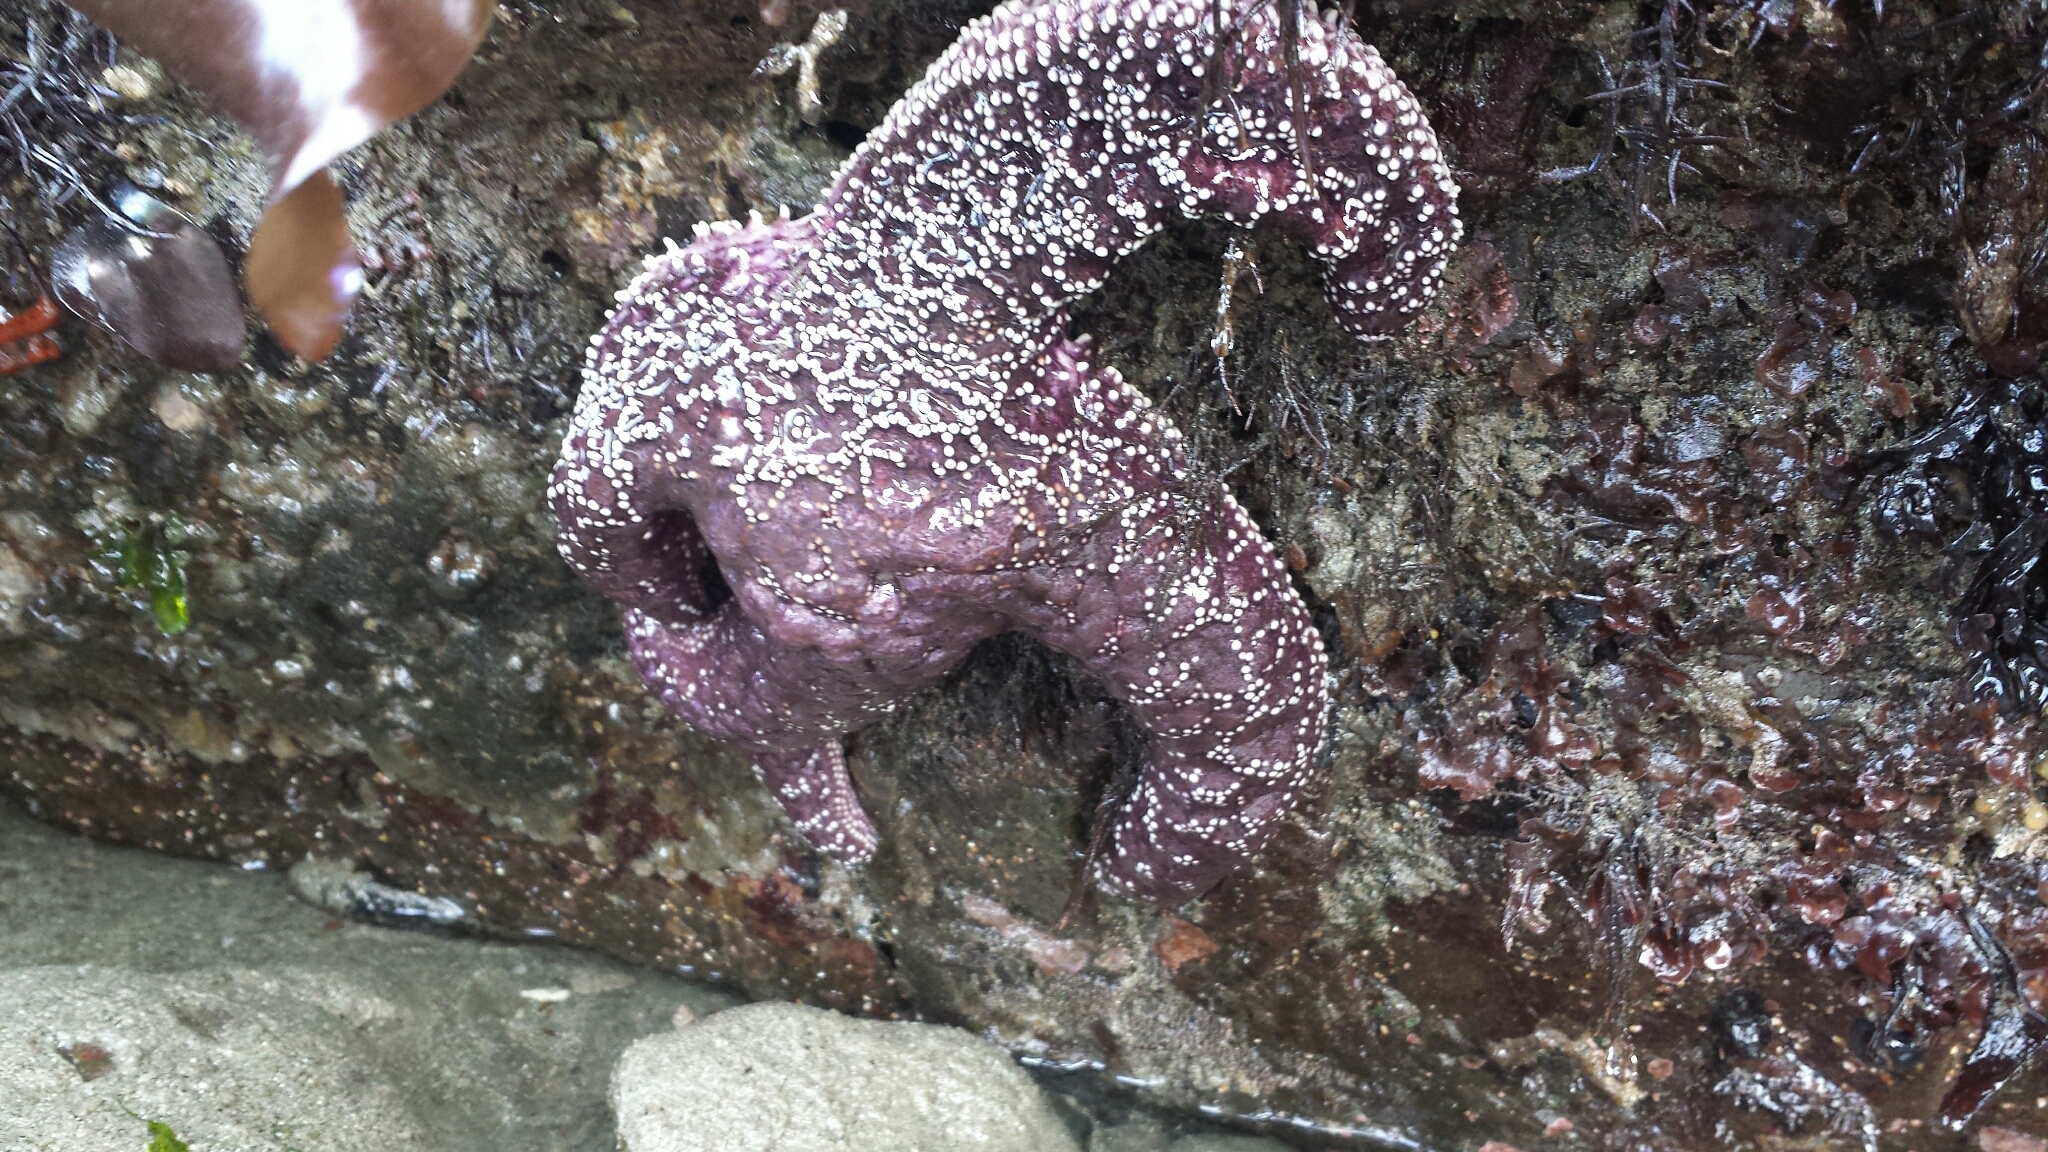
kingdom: Animalia
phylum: Echinodermata
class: Asteroidea
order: Forcipulatida
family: Asteriidae
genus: Pisaster
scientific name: Pisaster ochraceus
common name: Ochre stars
